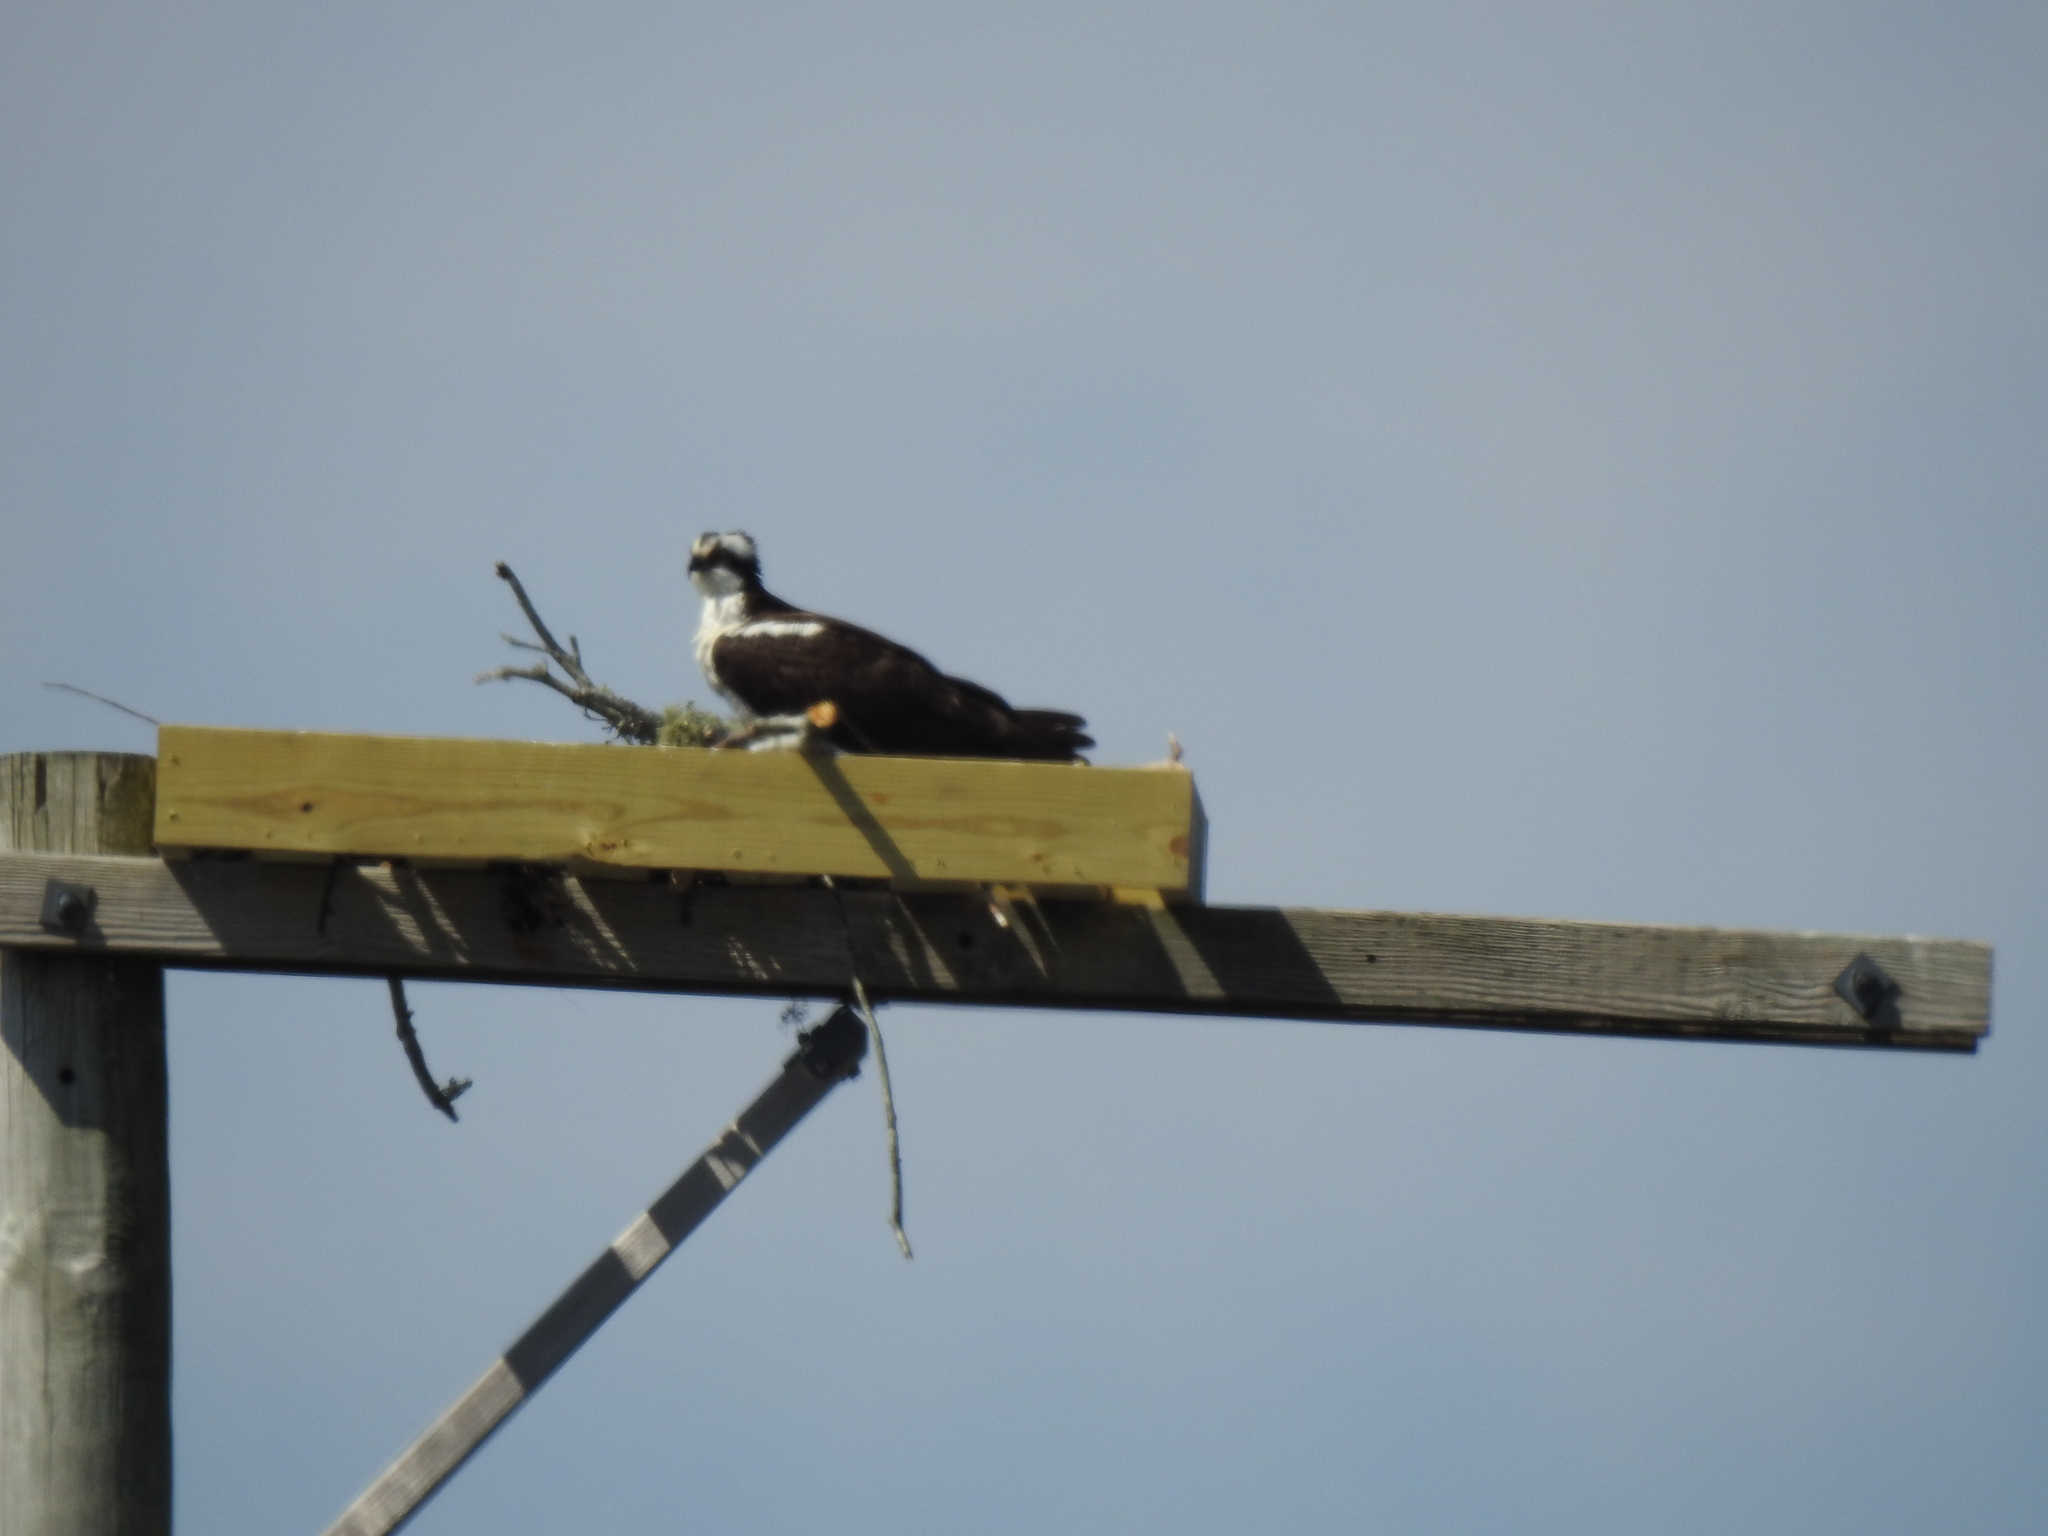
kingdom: Animalia
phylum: Chordata
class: Aves
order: Accipitriformes
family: Pandionidae
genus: Pandion
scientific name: Pandion haliaetus
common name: Osprey
